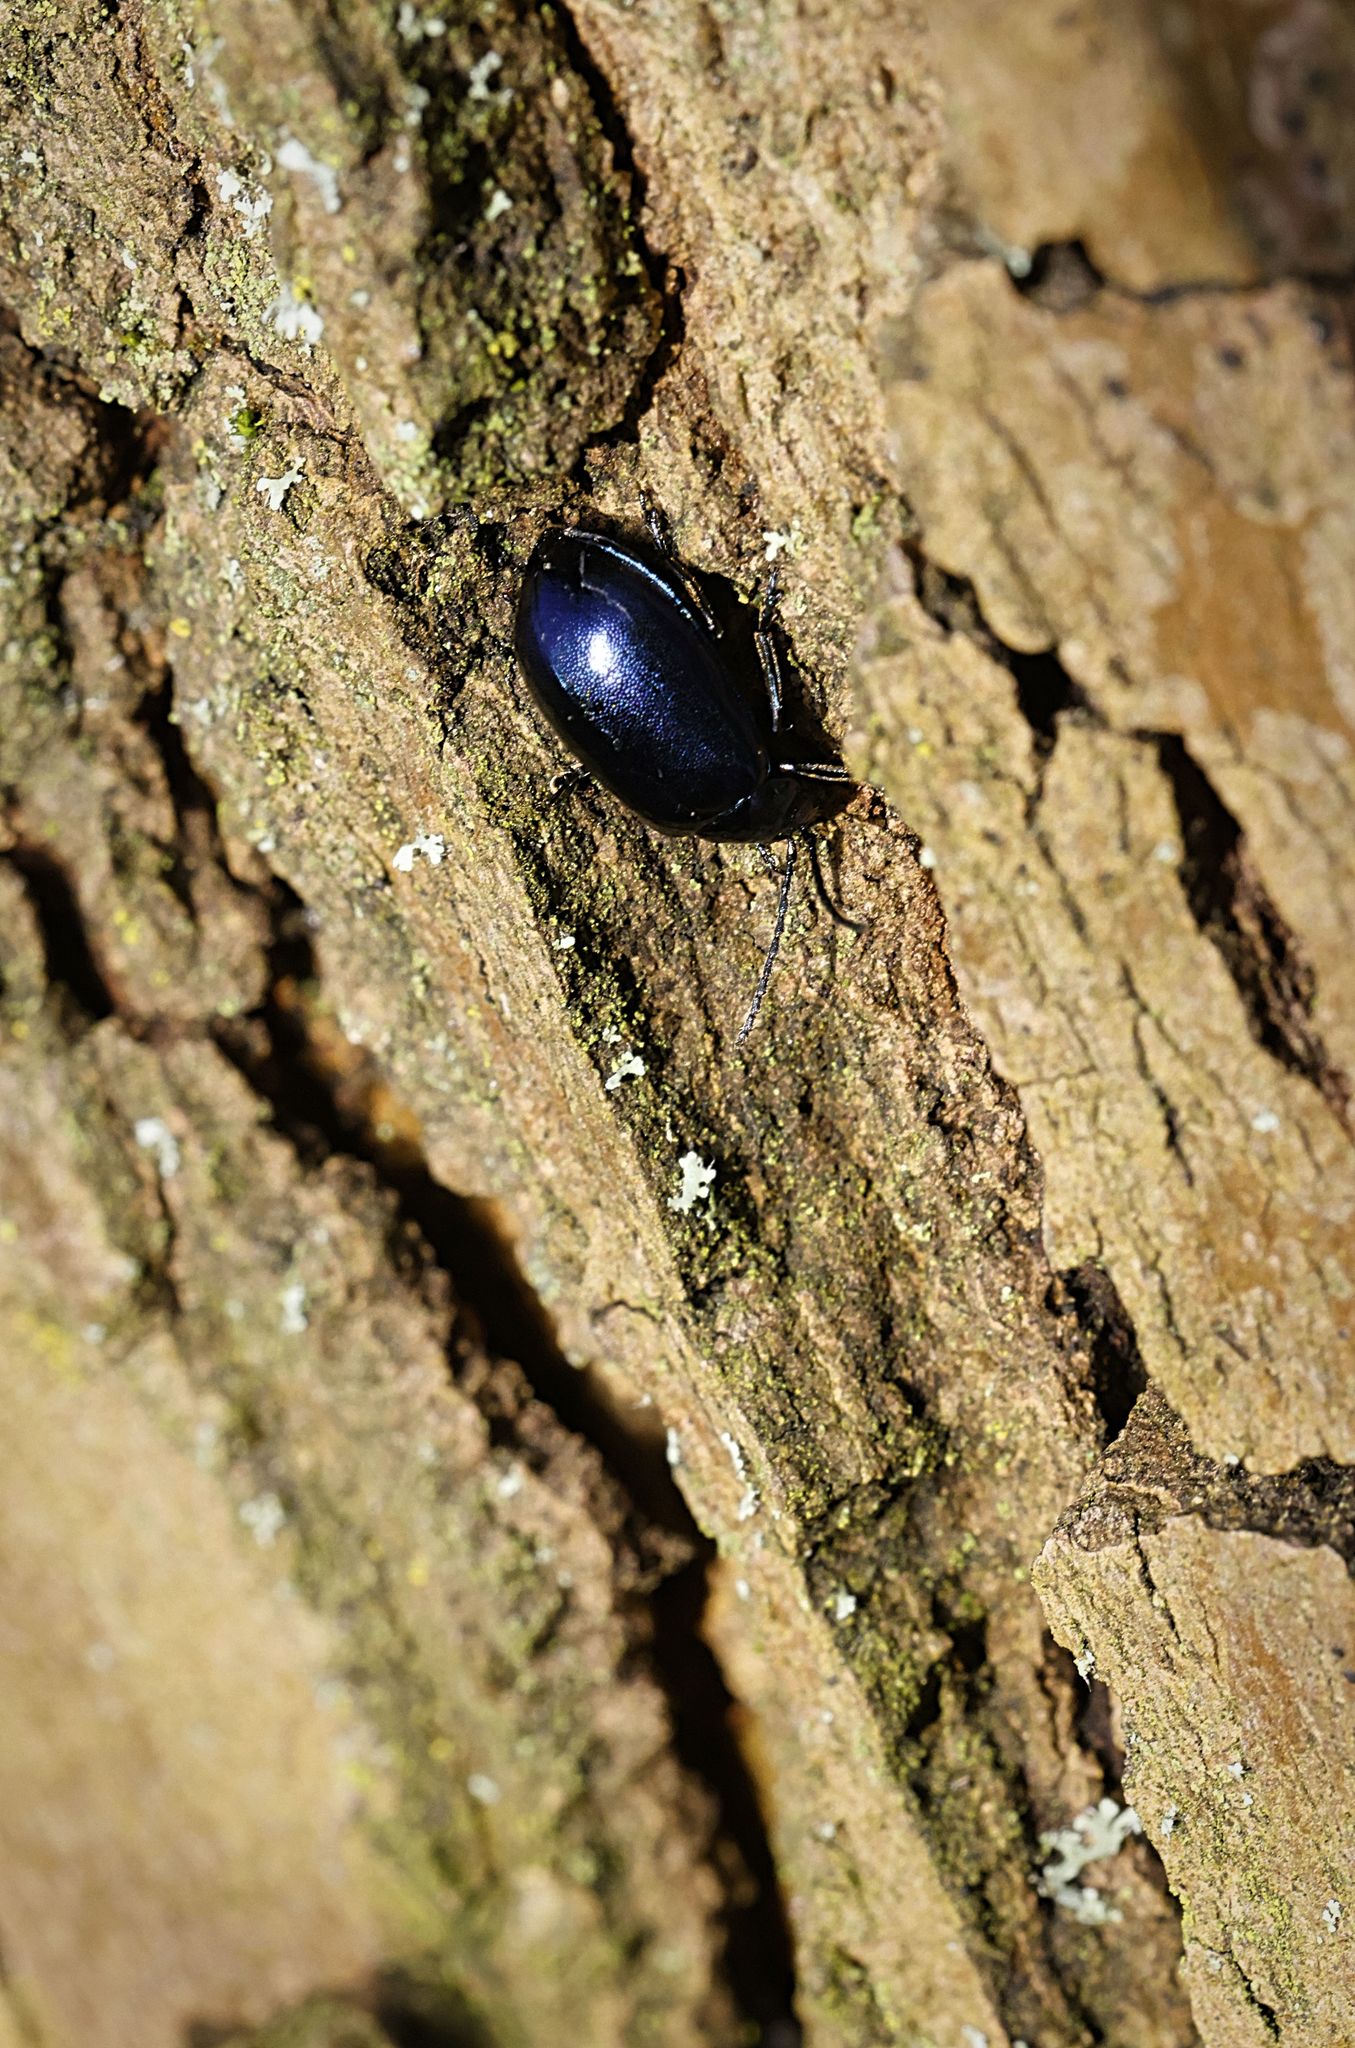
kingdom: Animalia
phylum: Arthropoda
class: Insecta
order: Coleoptera
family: Chrysomelidae
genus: Agelastica
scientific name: Agelastica alni
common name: Alder leaf beetle
